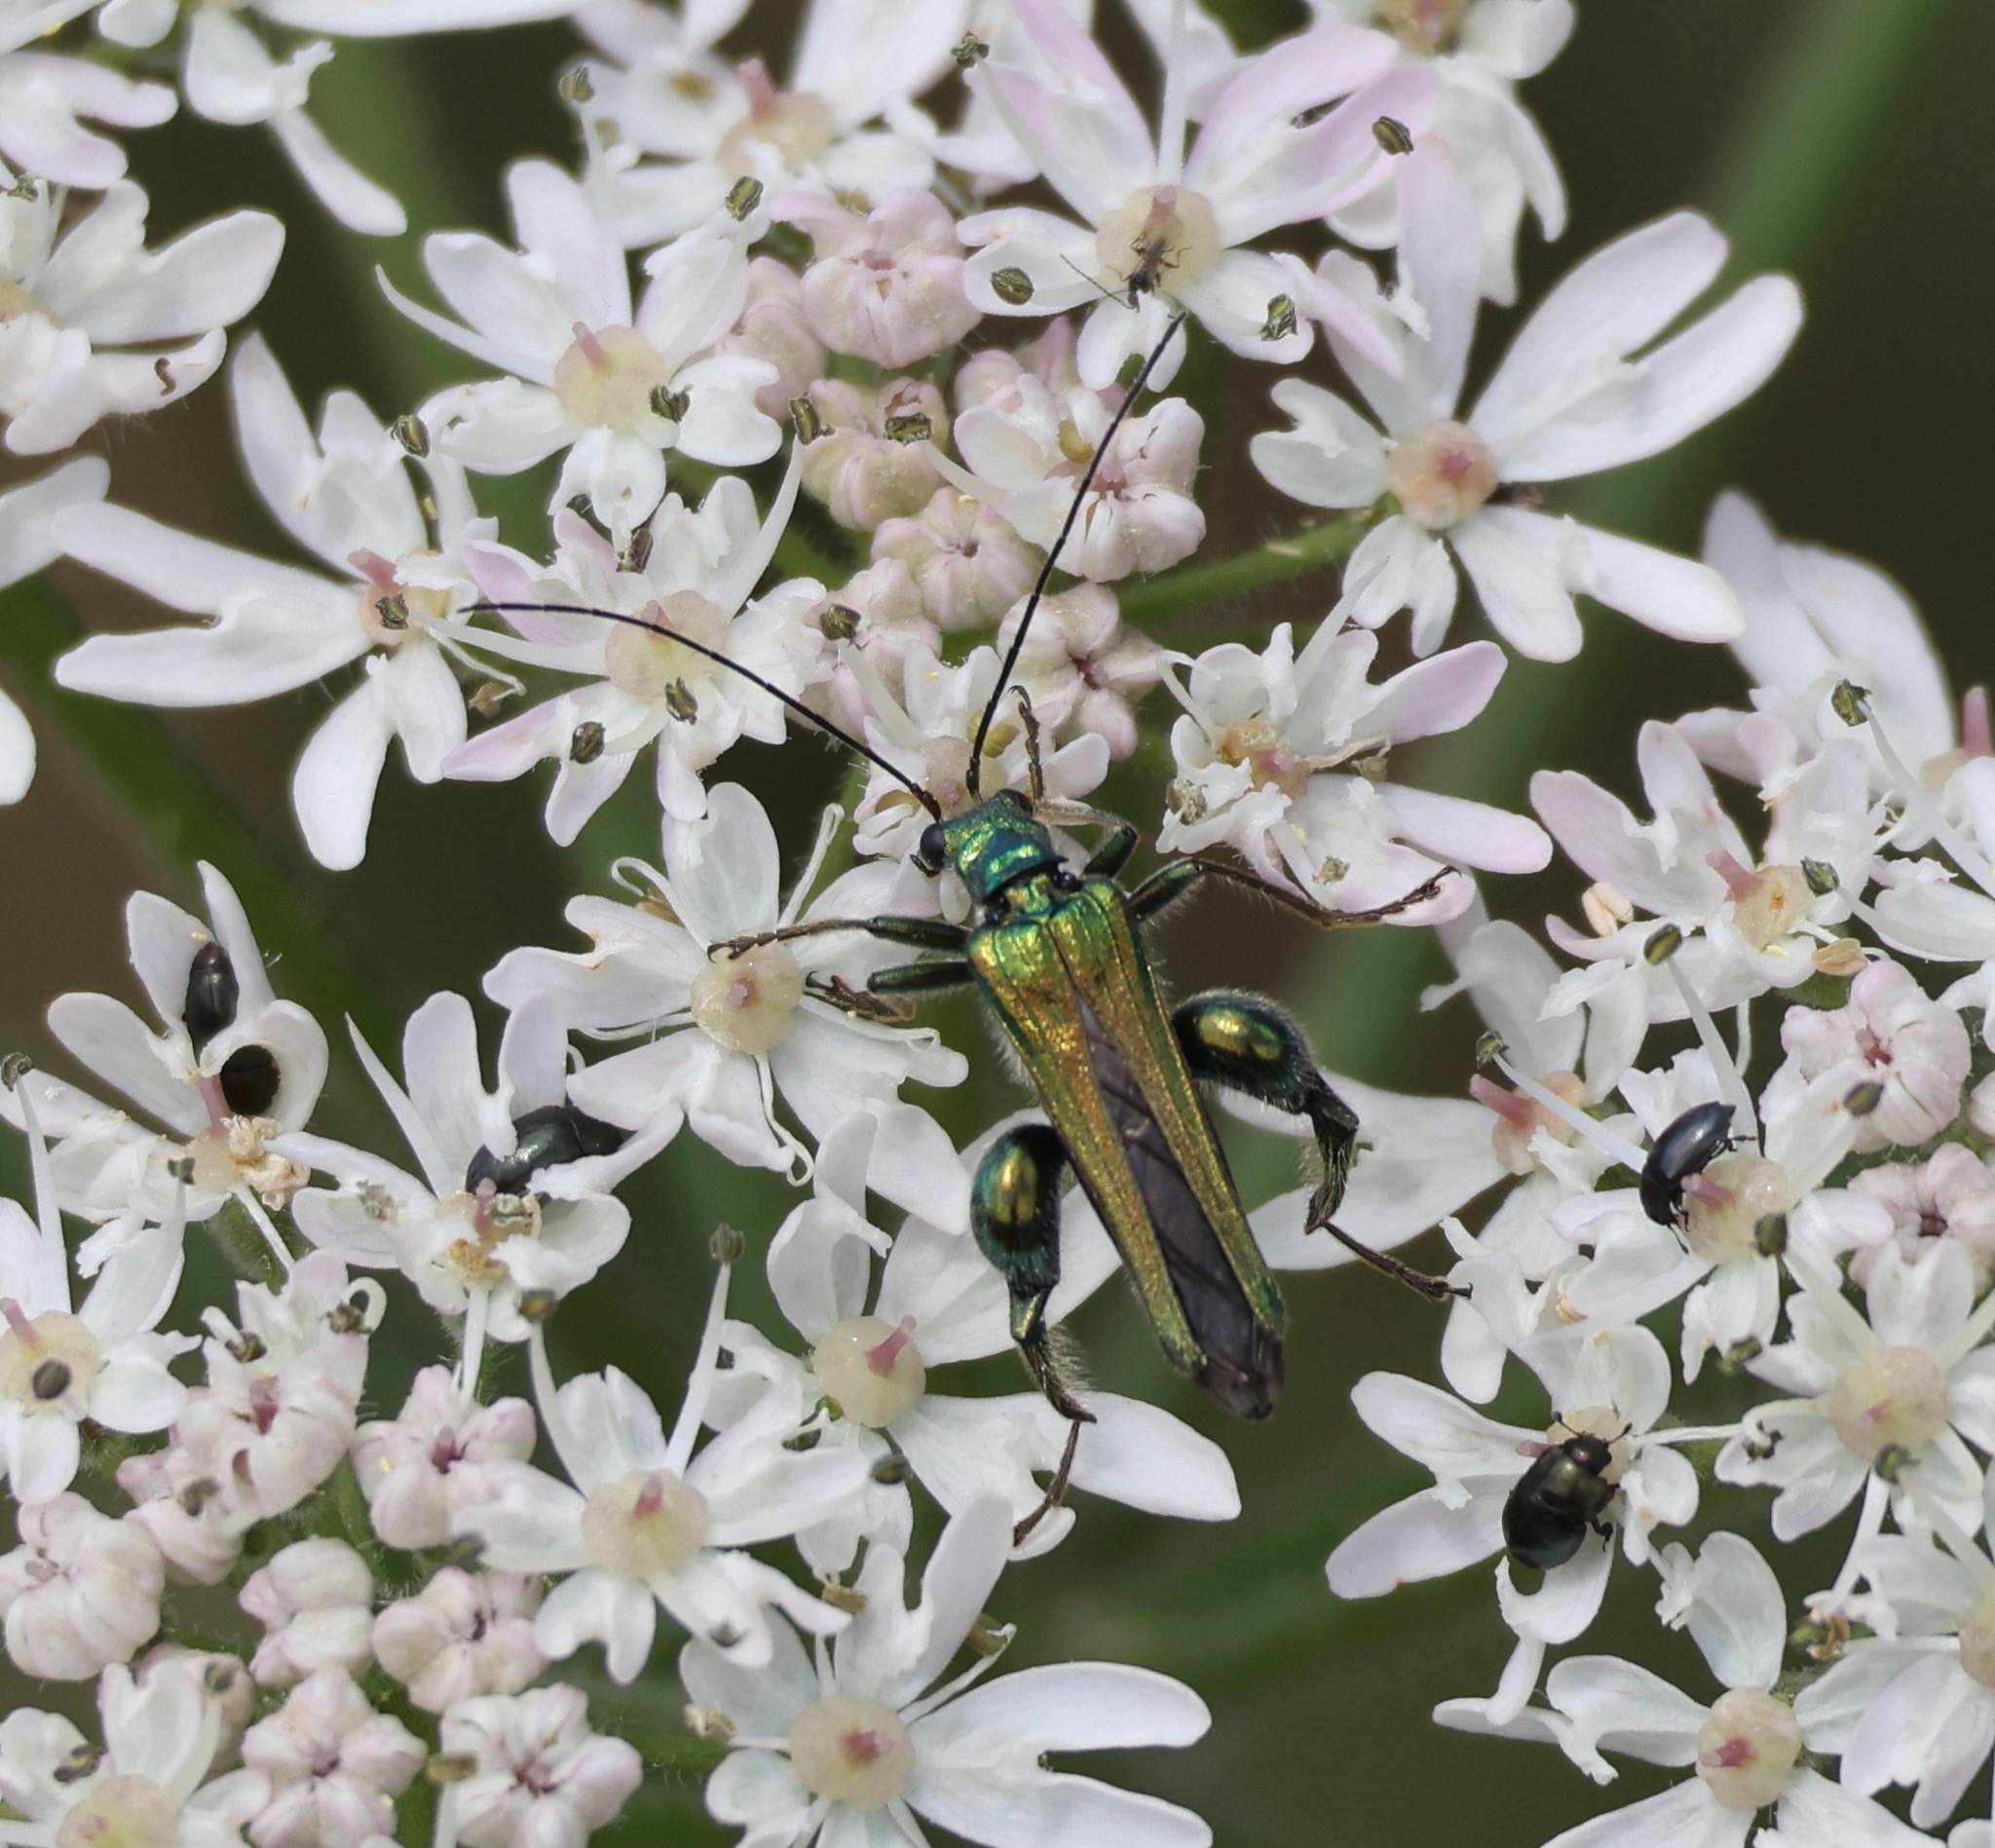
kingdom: Animalia
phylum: Arthropoda
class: Insecta
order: Coleoptera
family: Oedemeridae
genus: Oedemera
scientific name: Oedemera nobilis
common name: Swollen-thighed beetle
